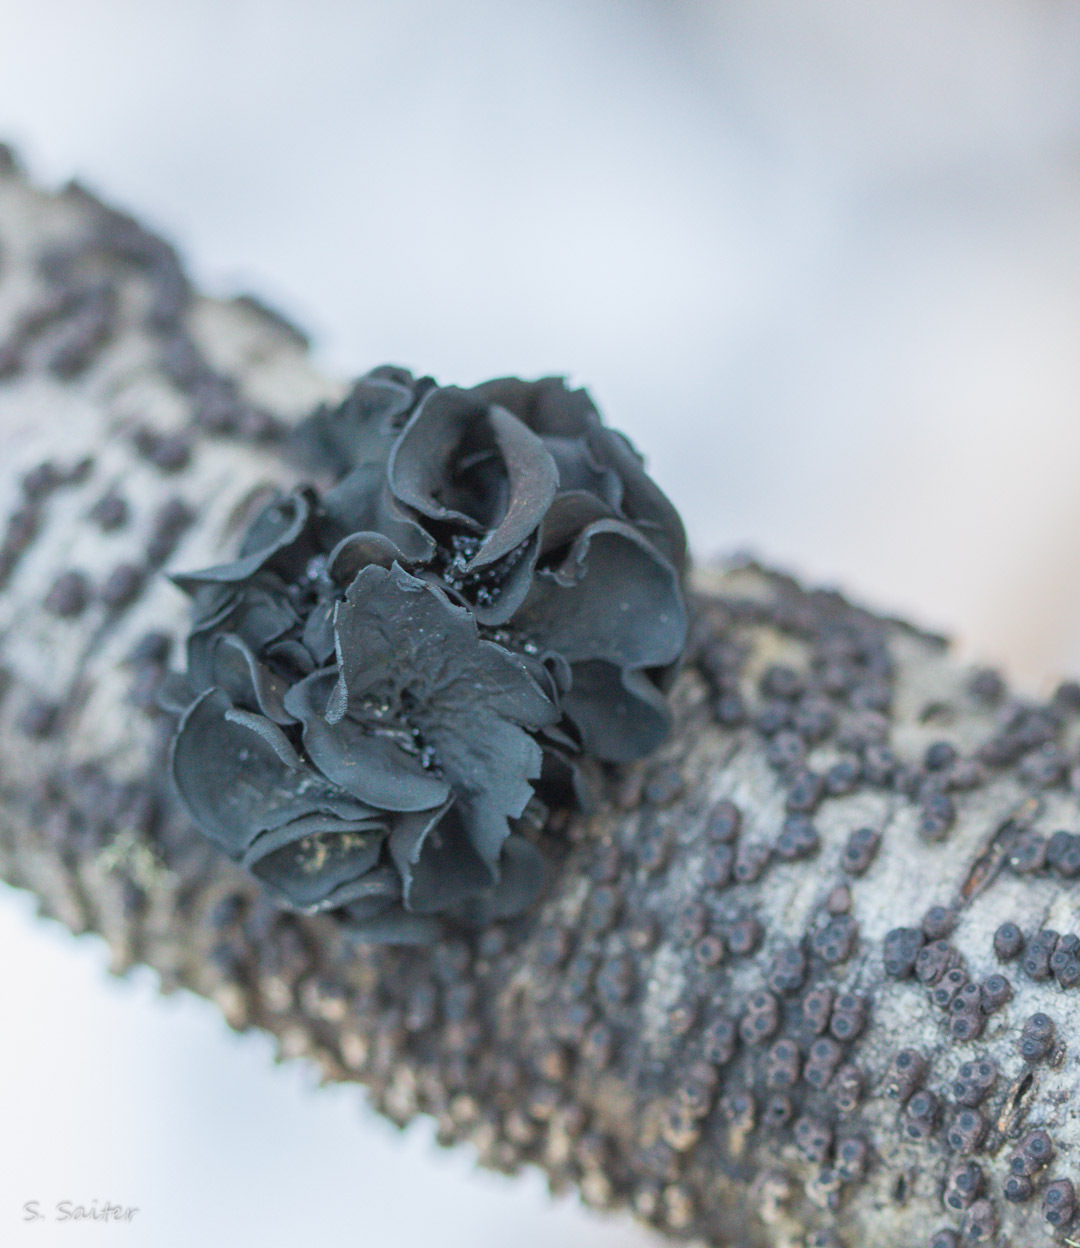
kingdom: Fungi
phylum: Ascomycota
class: Leotiomycetes
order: Helotiales
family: Cordieritidaceae
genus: Ameghiniella
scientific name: Ameghiniella australis
